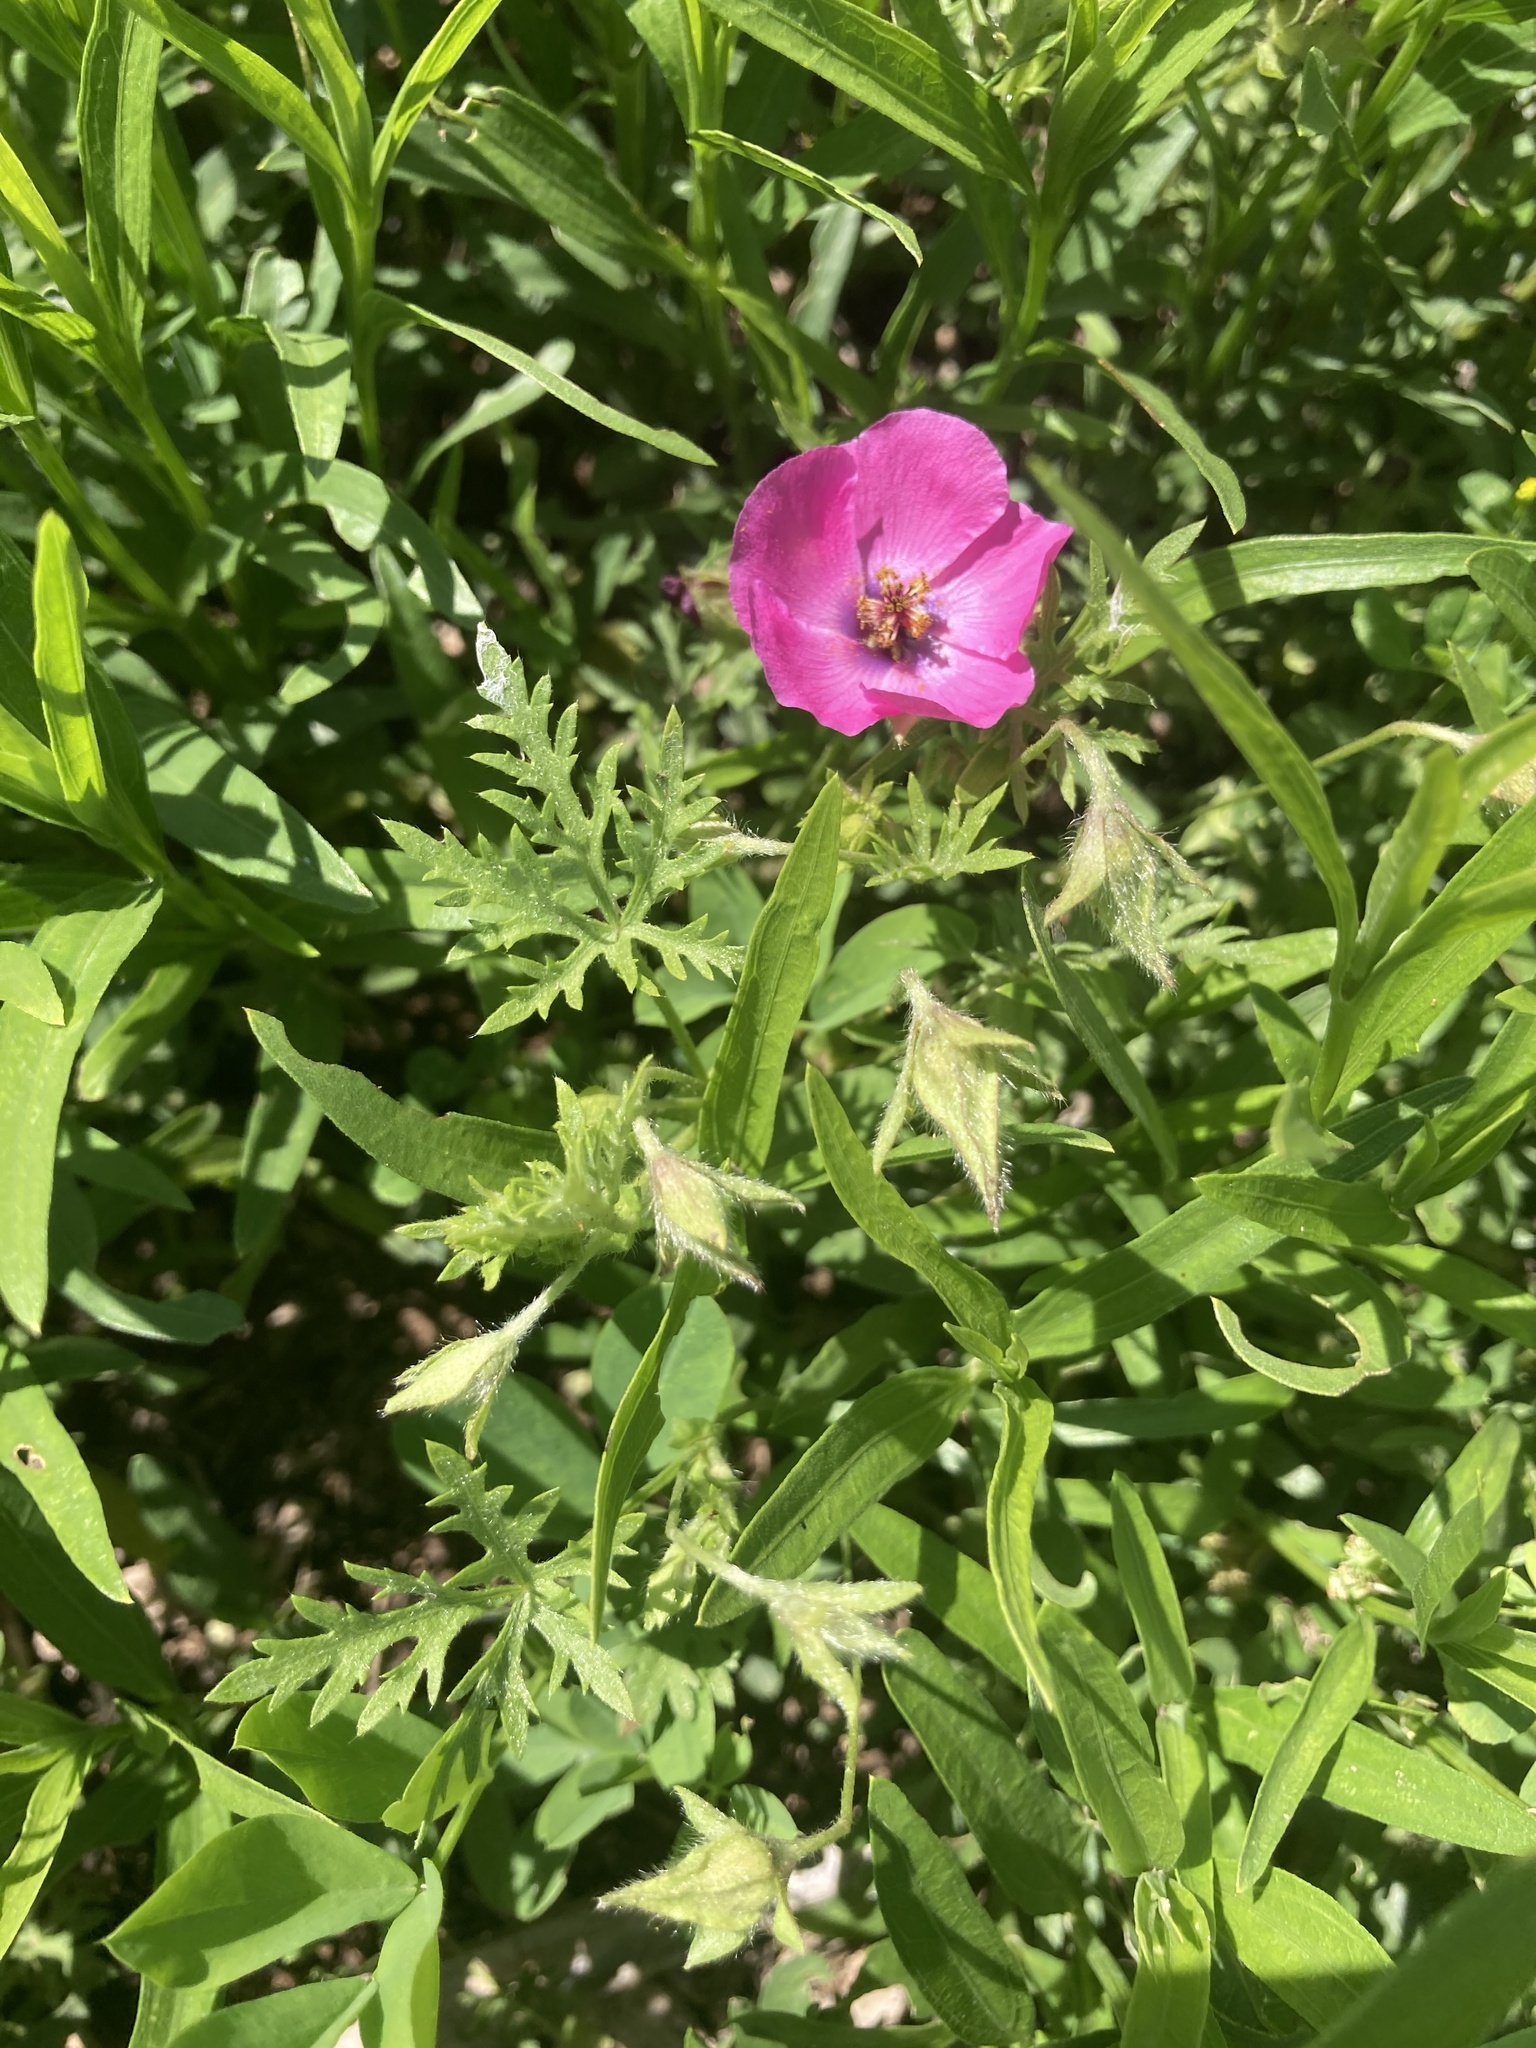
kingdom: Plantae
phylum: Tracheophyta
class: Magnoliopsida
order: Malvales
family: Malvaceae
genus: Modiolastrum
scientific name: Modiolastrum gilliesii
